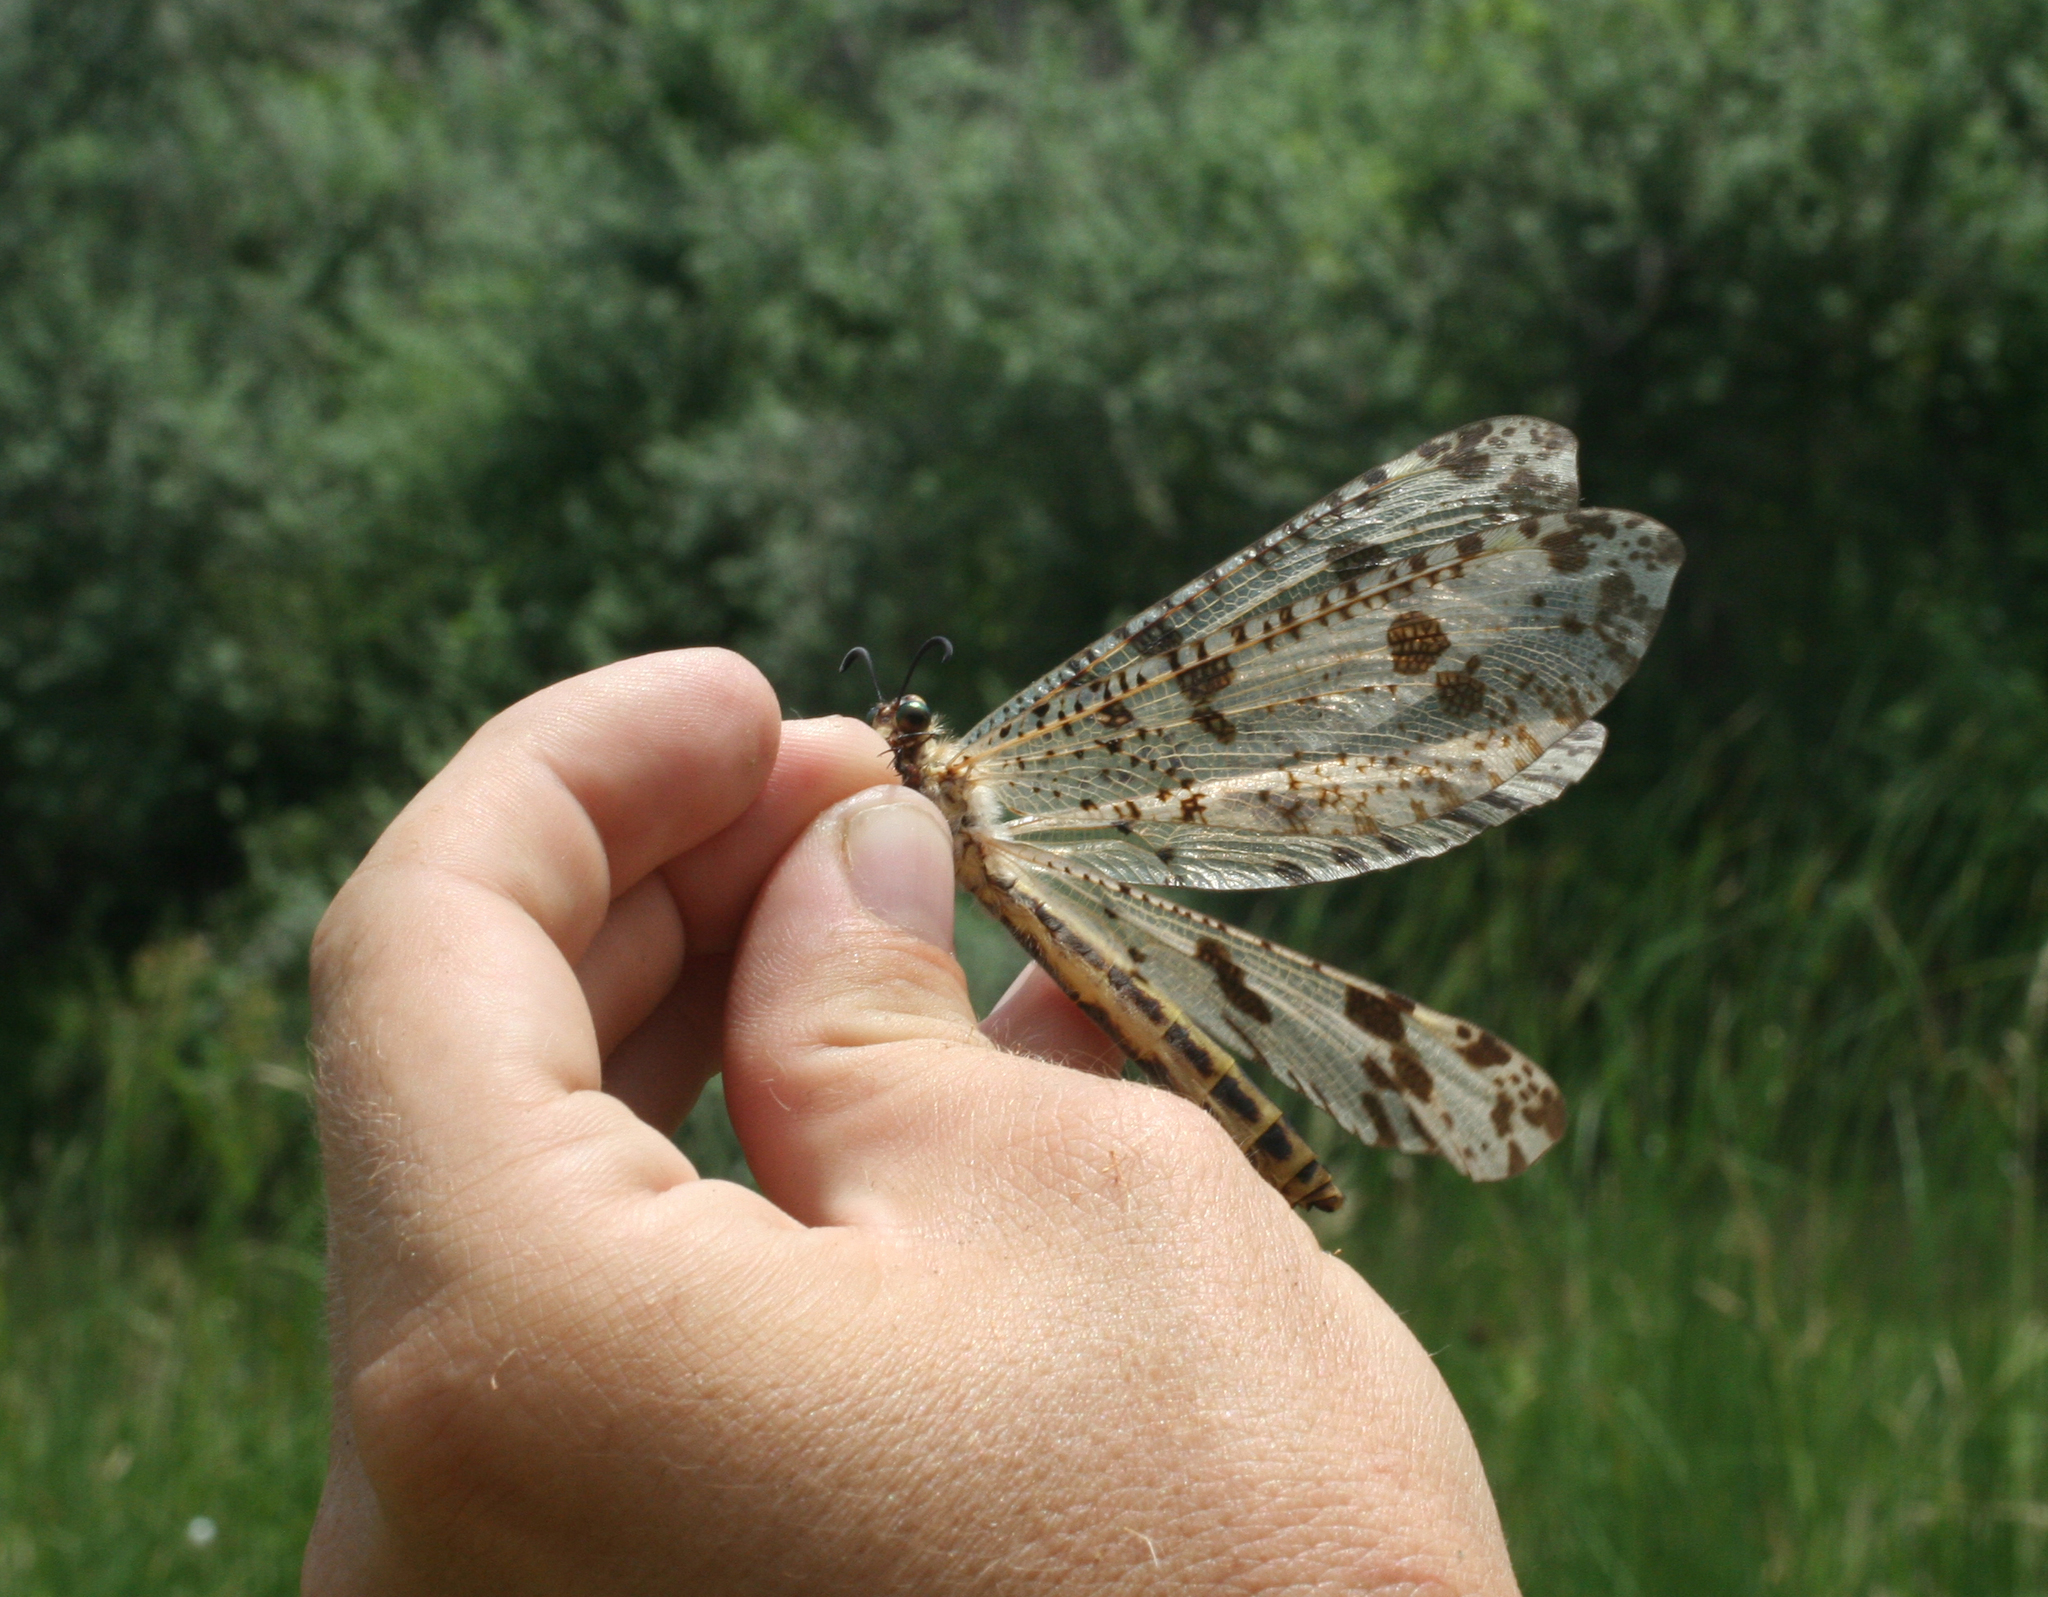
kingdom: Animalia
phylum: Arthropoda
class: Insecta
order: Neuroptera
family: Myrmeleontidae
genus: Palpares
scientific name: Palpares libelluloides
